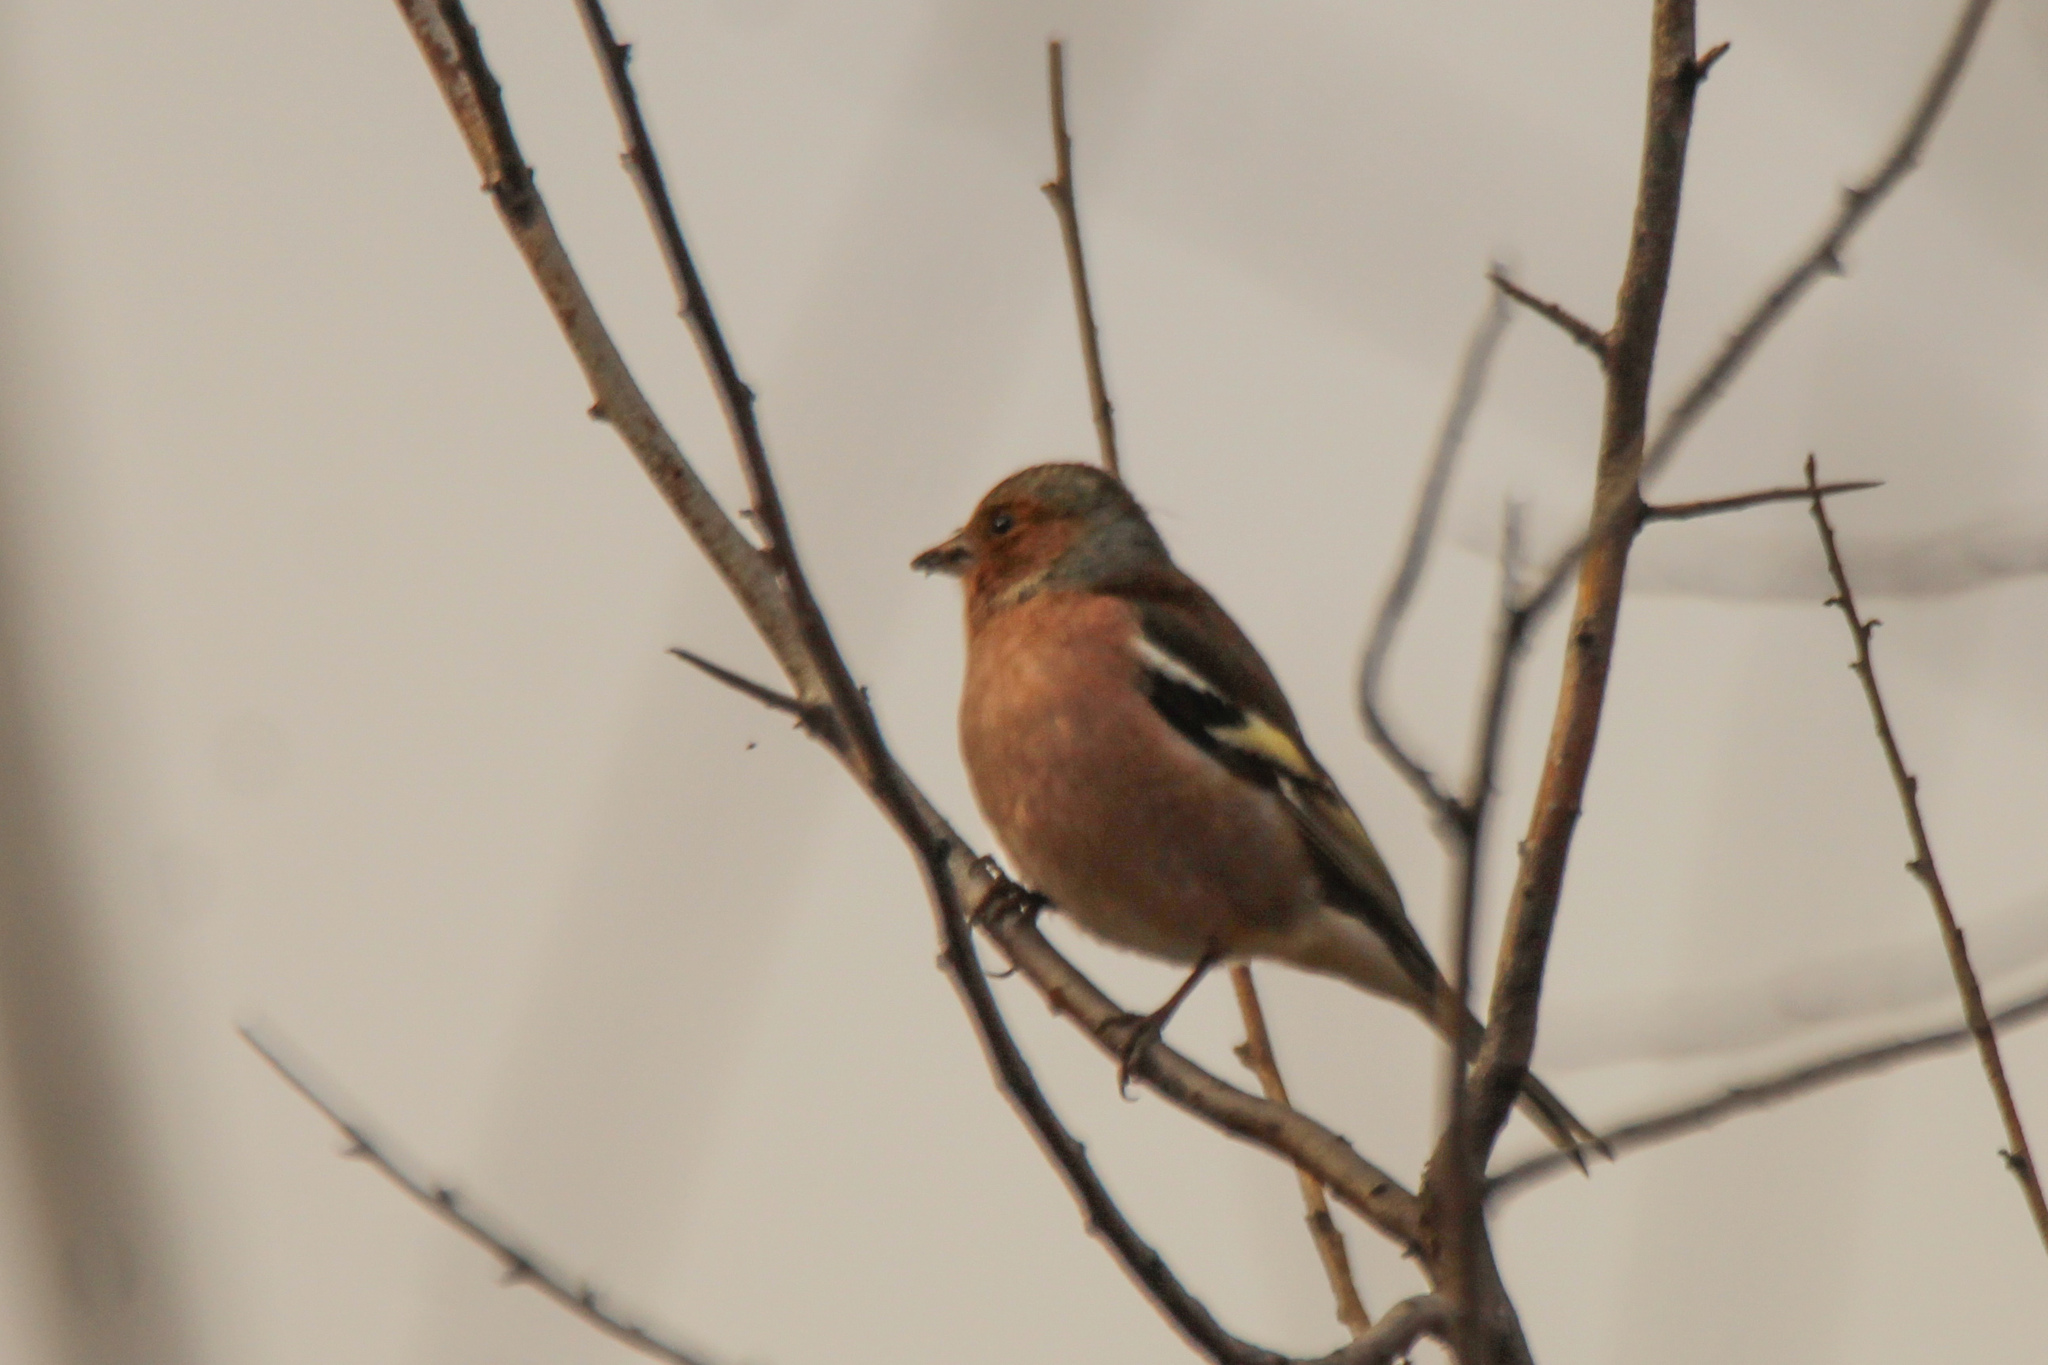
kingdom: Animalia
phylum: Chordata
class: Aves
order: Passeriformes
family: Fringillidae
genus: Fringilla
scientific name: Fringilla coelebs
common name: Common chaffinch
